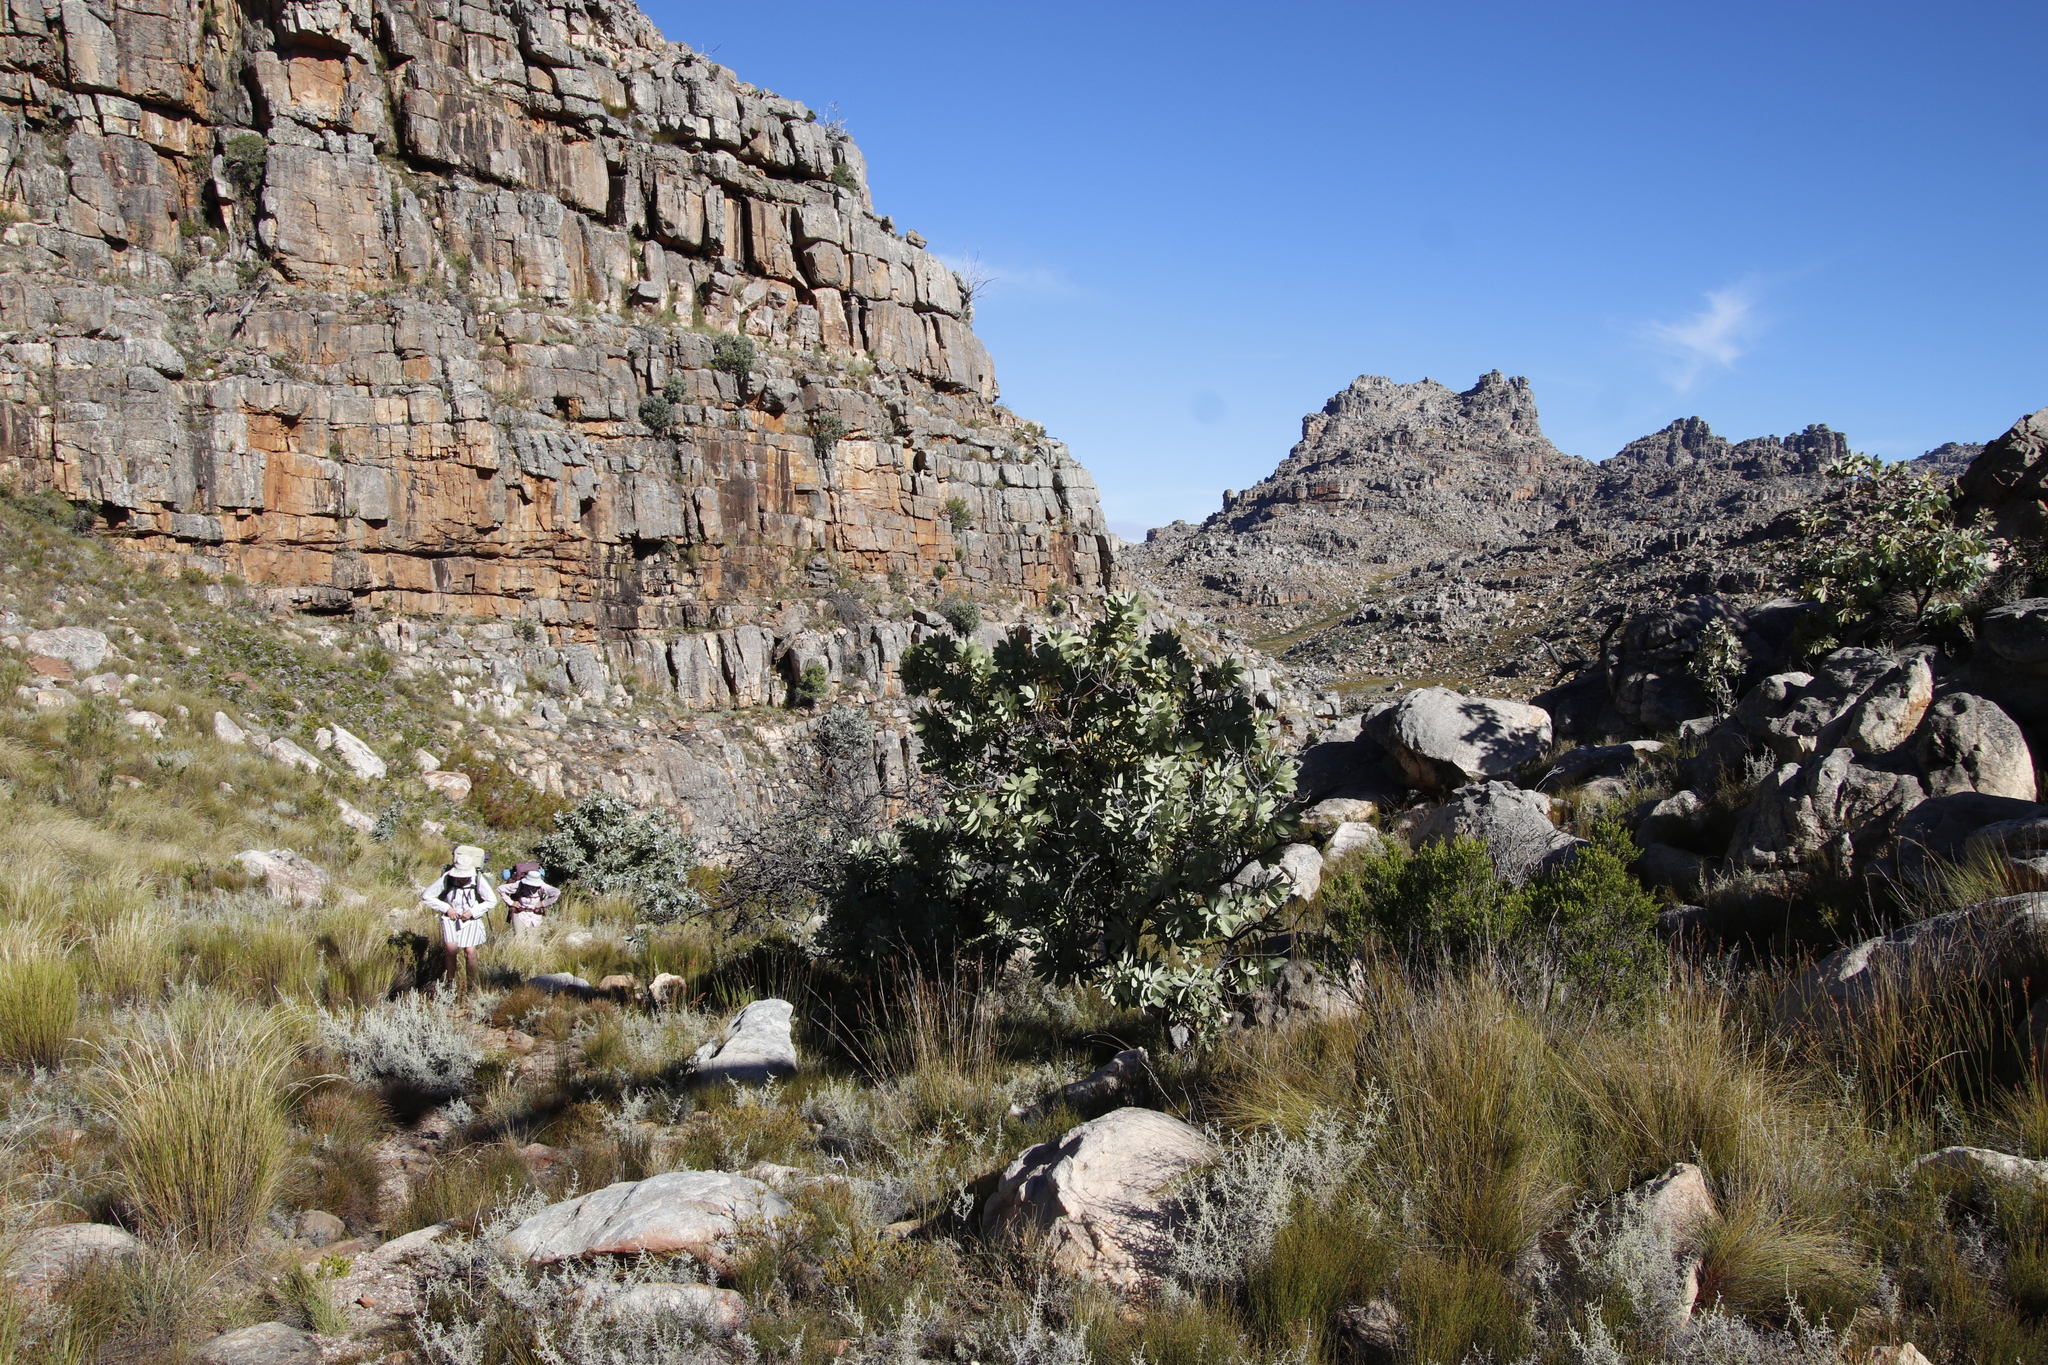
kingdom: Plantae
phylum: Tracheophyta
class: Magnoliopsida
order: Proteales
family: Proteaceae
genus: Protea
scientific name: Protea nitida
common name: Tree protea
